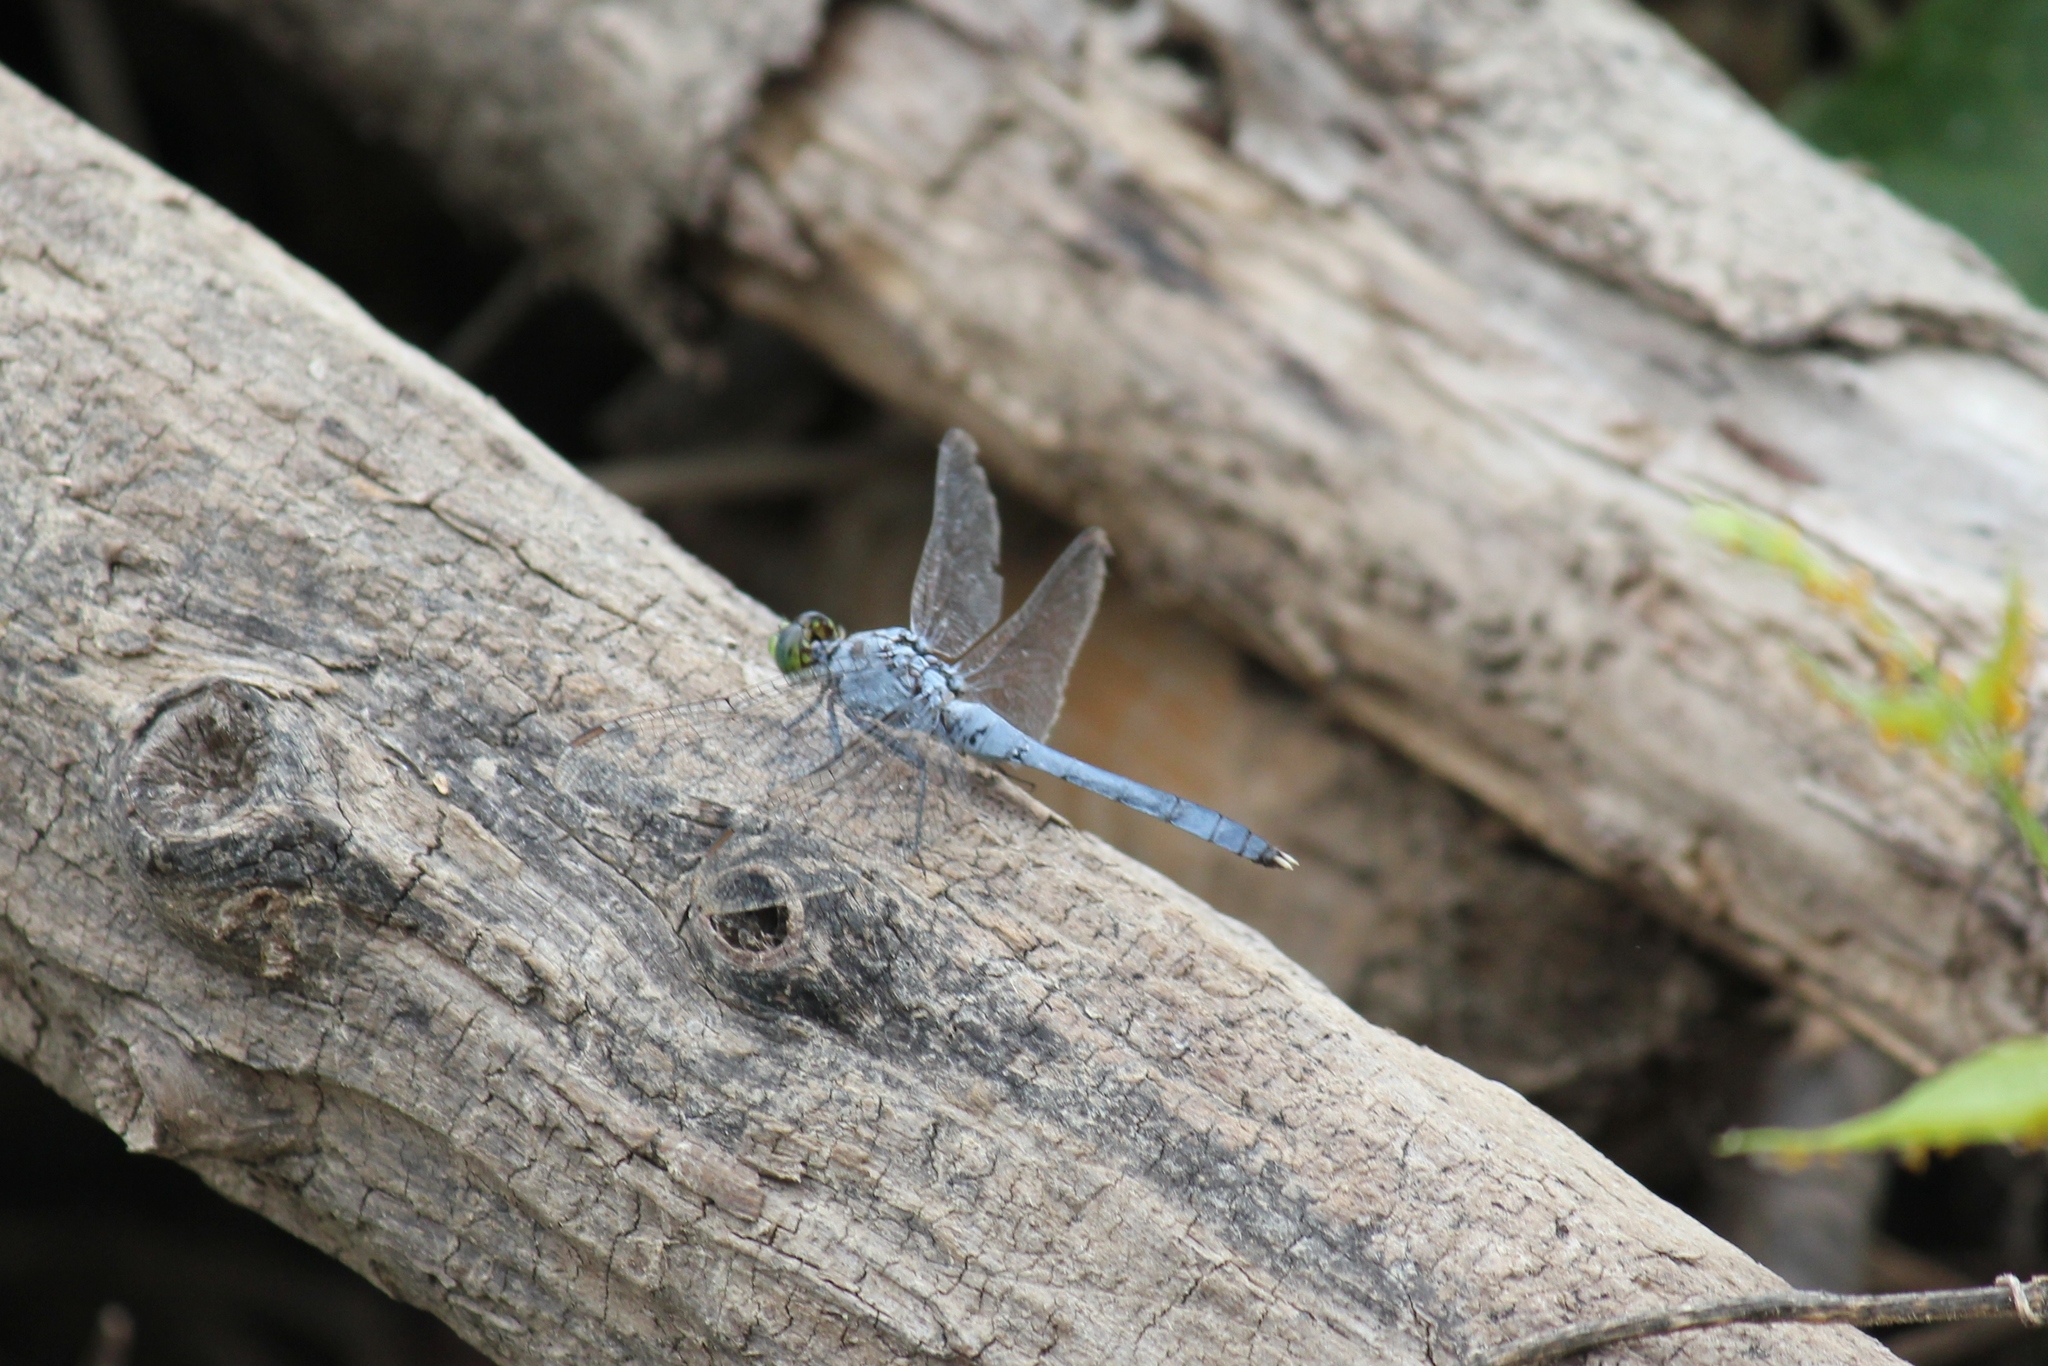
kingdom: Animalia
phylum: Arthropoda
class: Insecta
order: Odonata
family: Libellulidae
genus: Erythemis
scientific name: Erythemis simplicicollis
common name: Eastern pondhawk
